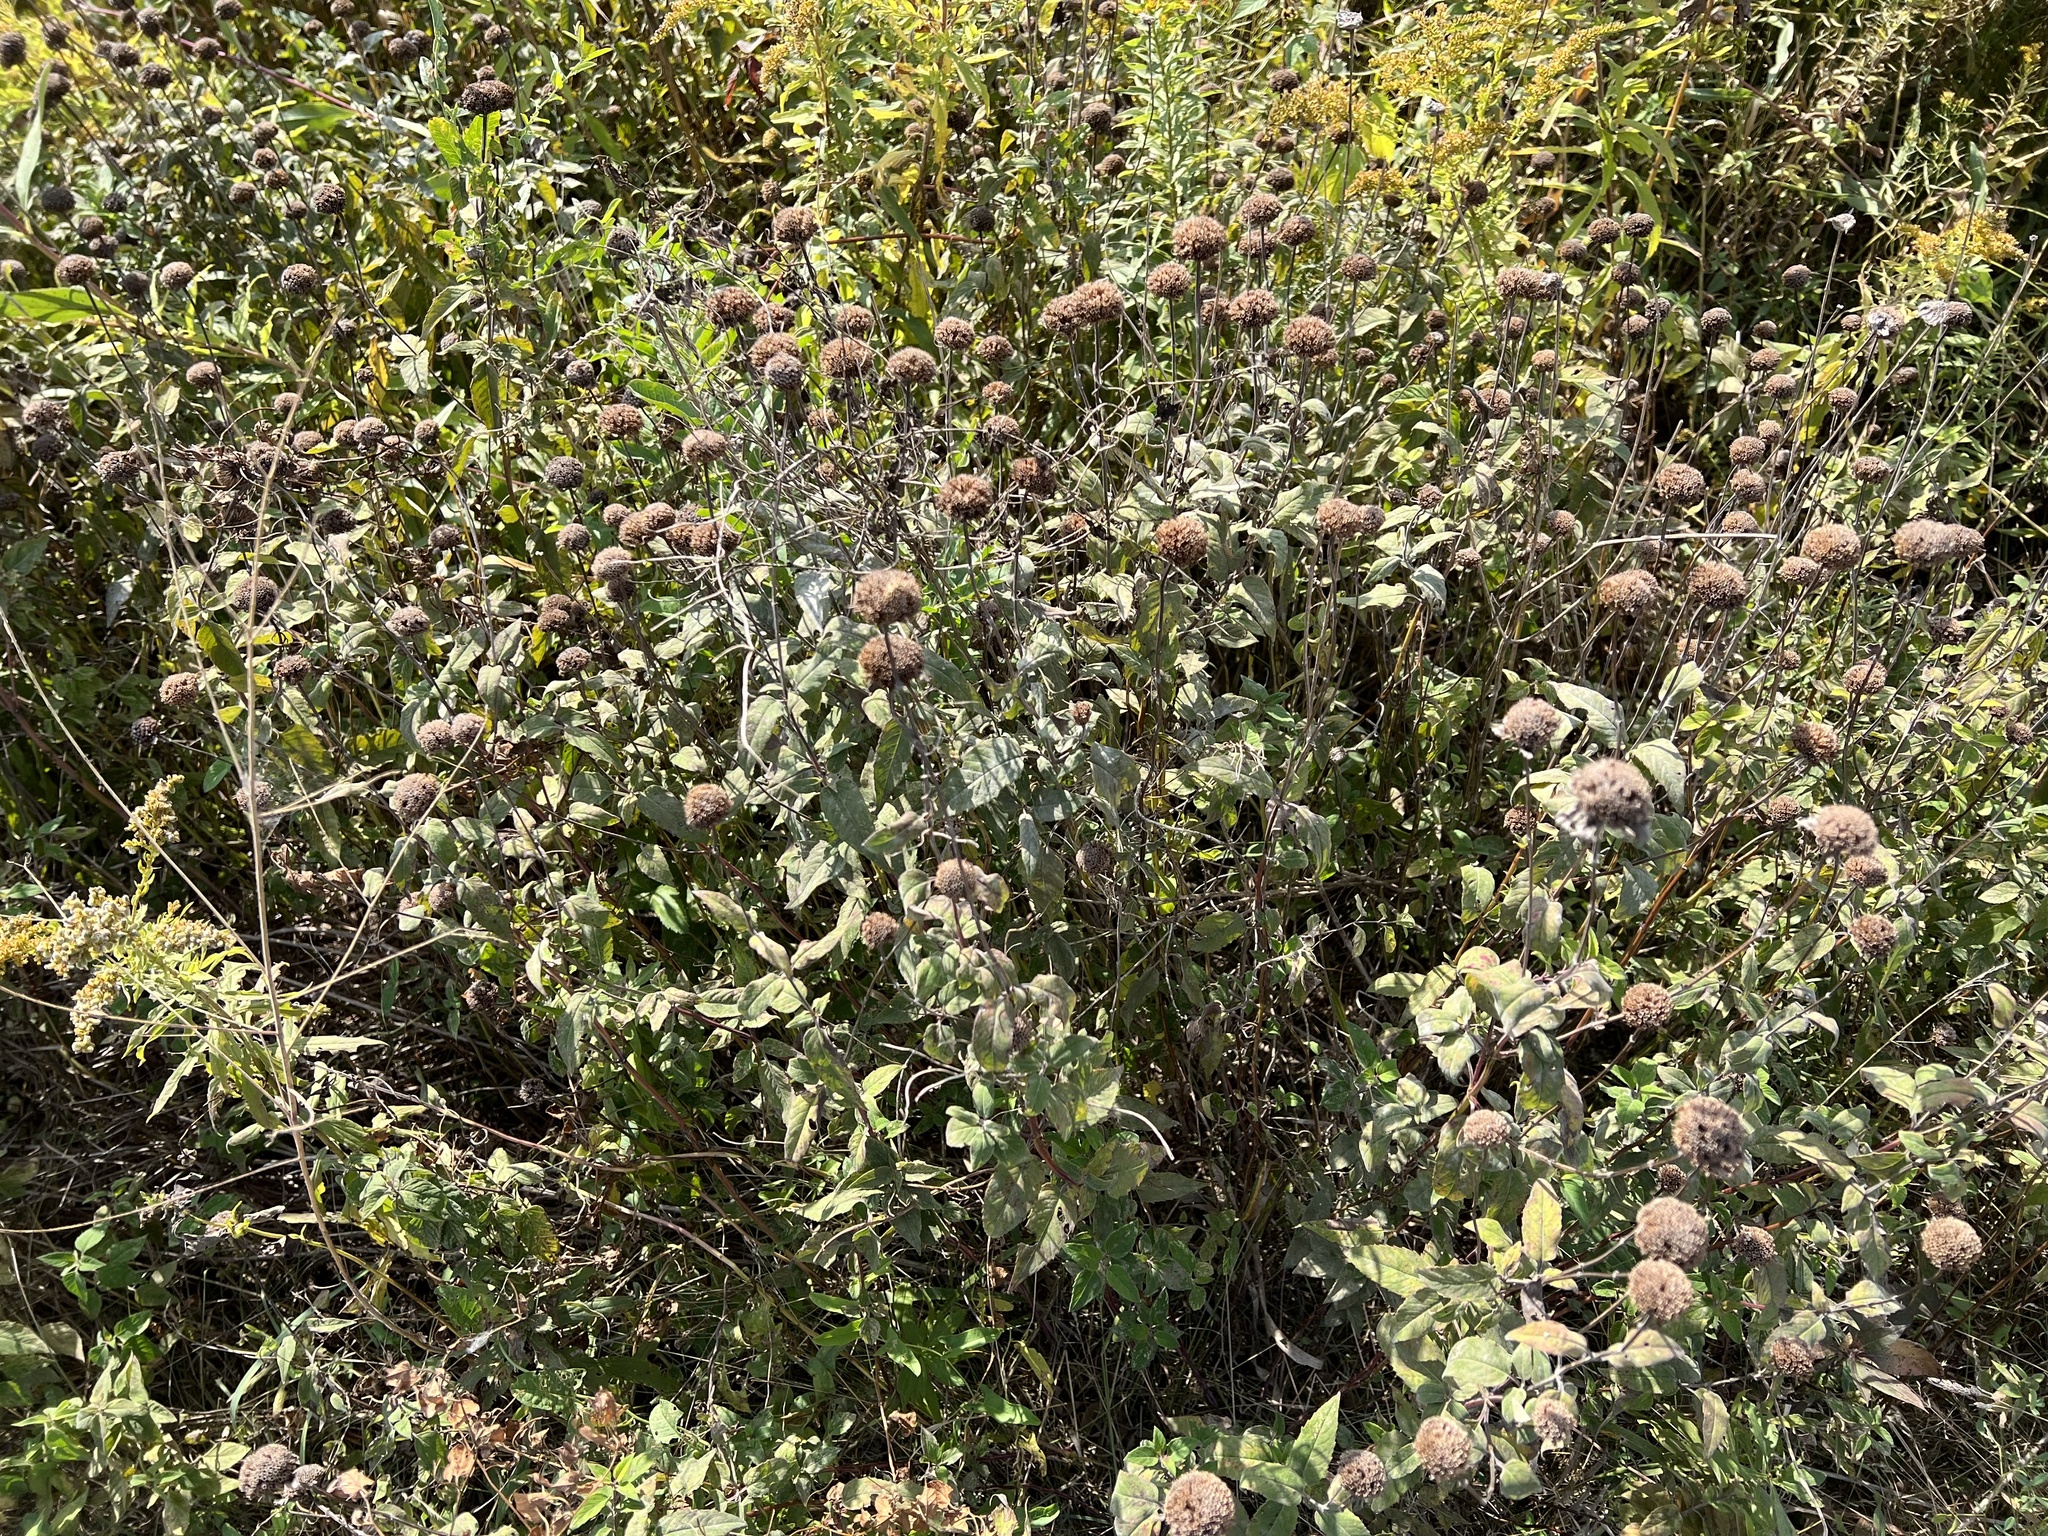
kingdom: Plantae
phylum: Tracheophyta
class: Magnoliopsida
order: Lamiales
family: Lamiaceae
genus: Monarda
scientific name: Monarda fistulosa
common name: Purple beebalm
